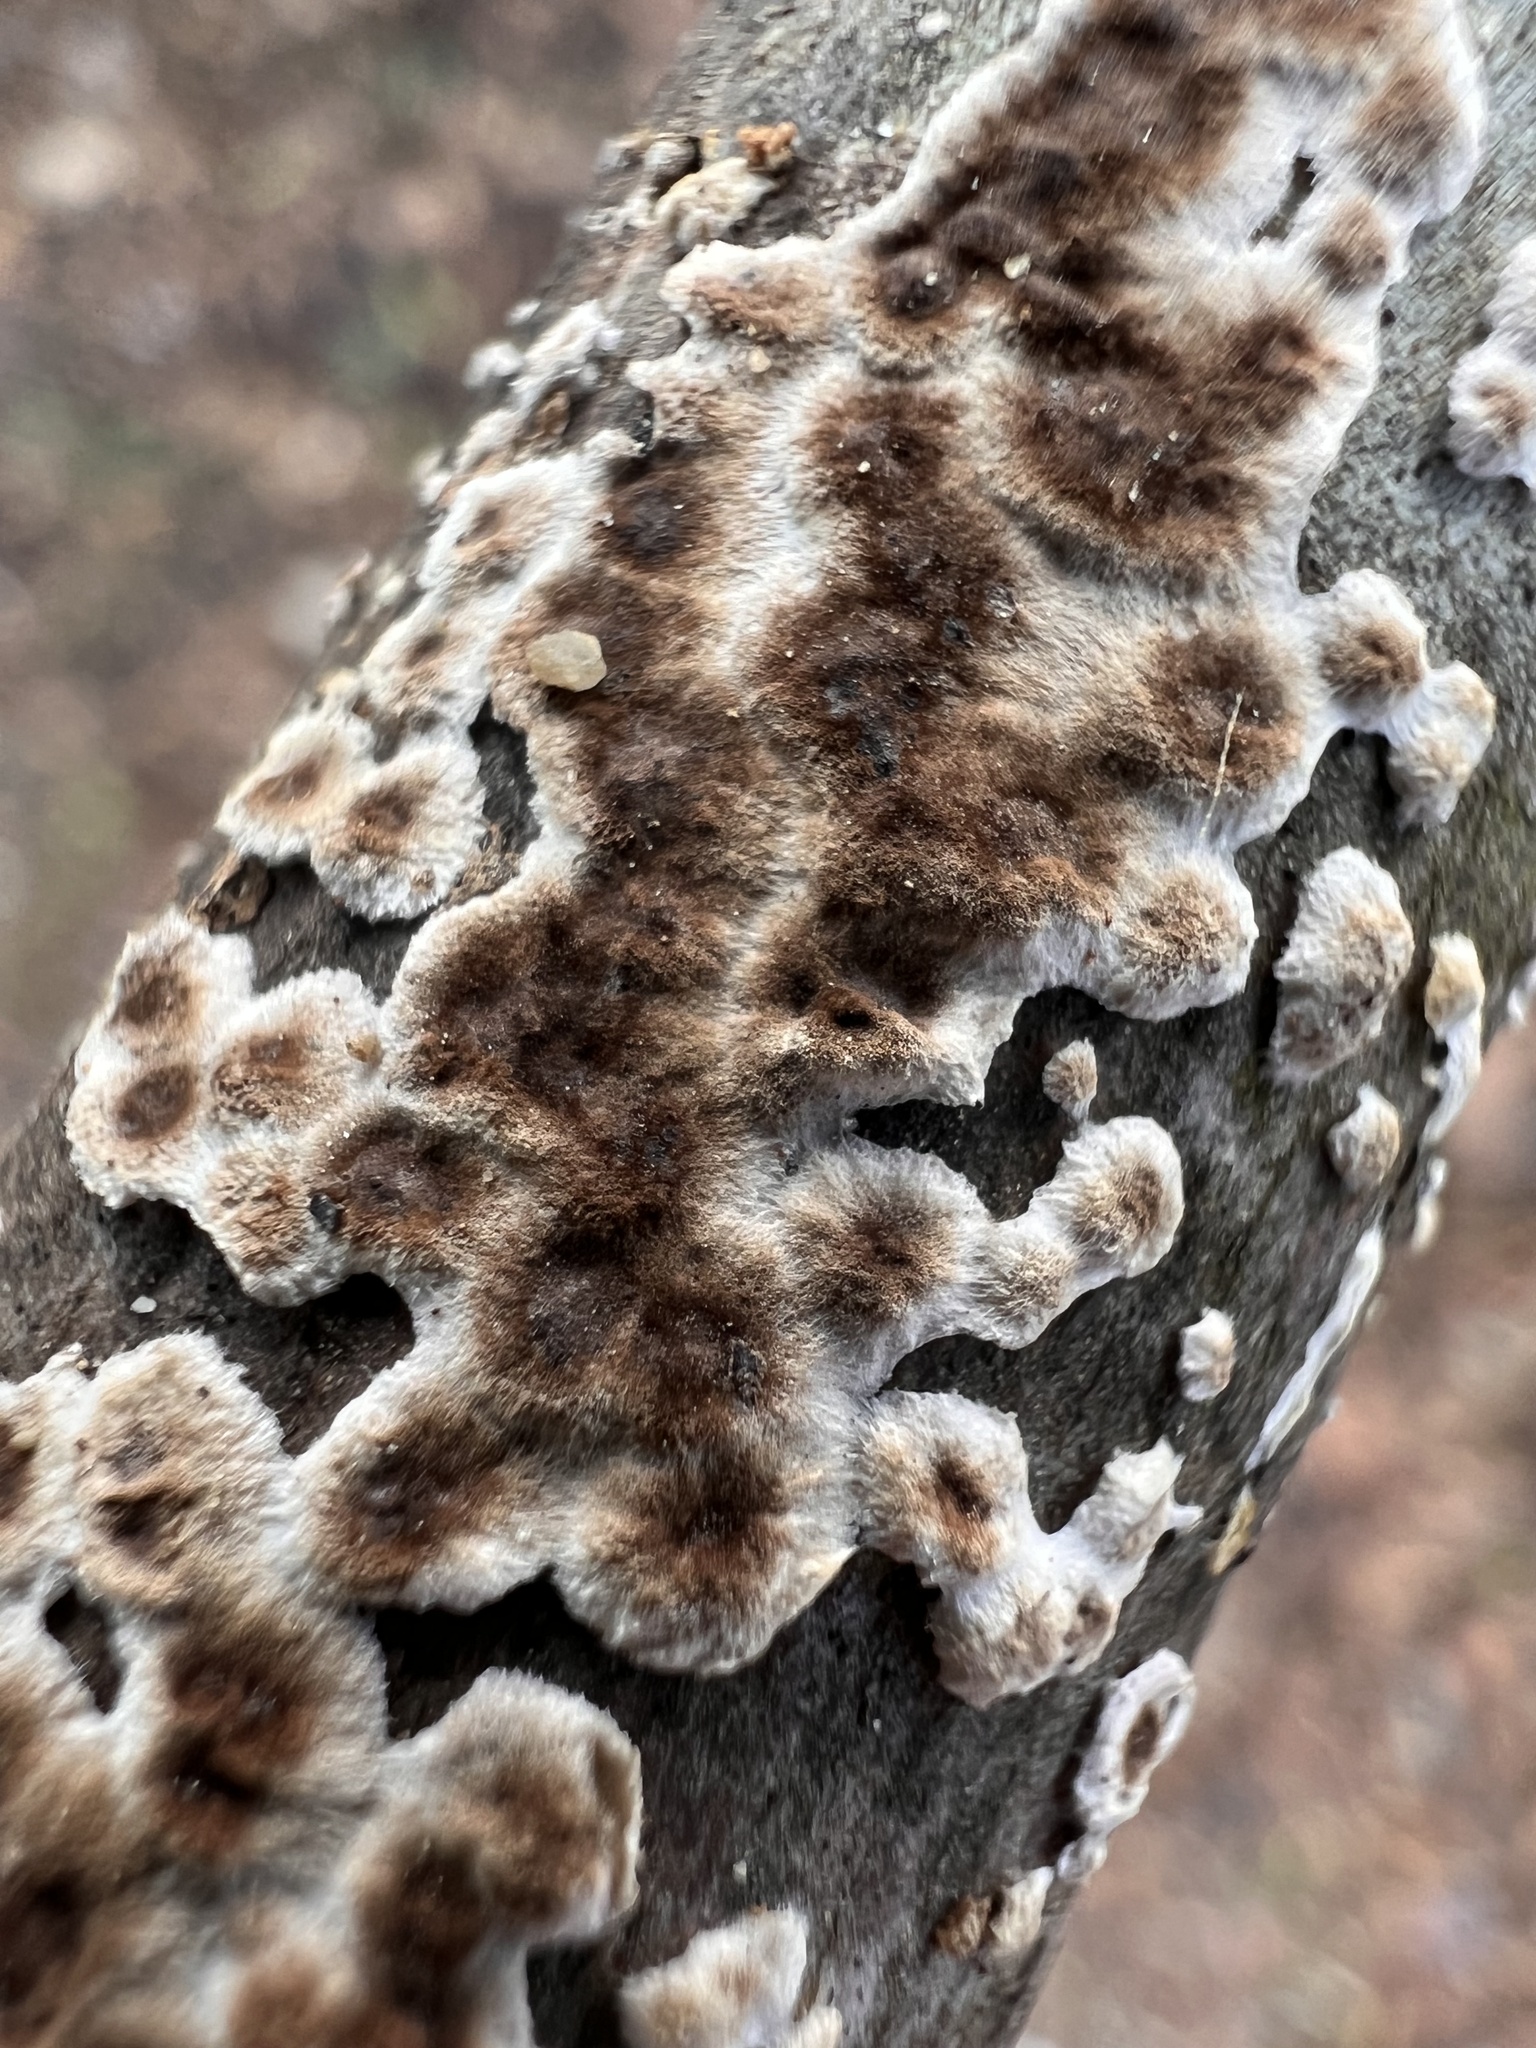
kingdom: Fungi
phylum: Basidiomycota
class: Agaricomycetes
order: Russulales
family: Peniophoraceae
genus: Peniophora
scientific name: Peniophora albobadia
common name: Giraffe spots
